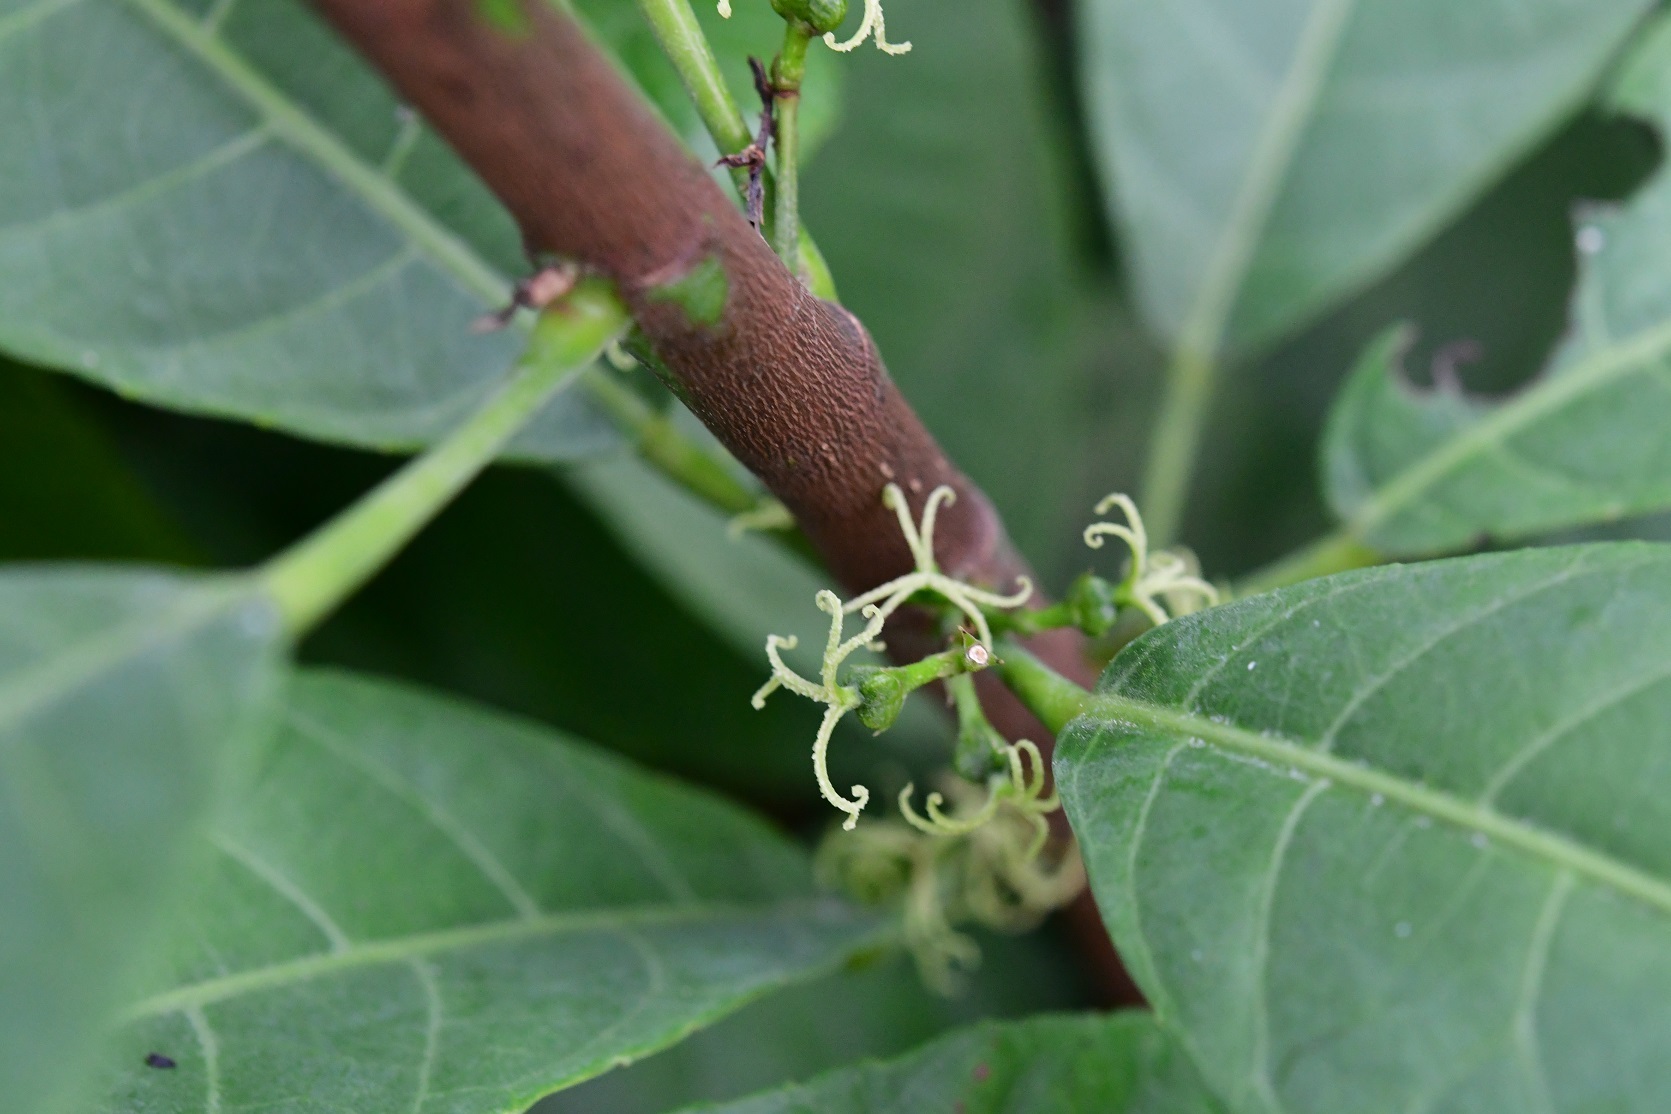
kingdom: Plantae
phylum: Tracheophyta
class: Magnoliopsida
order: Malpighiales
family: Euphorbiaceae
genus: Cleidion
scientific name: Cleidion castaneifolium
